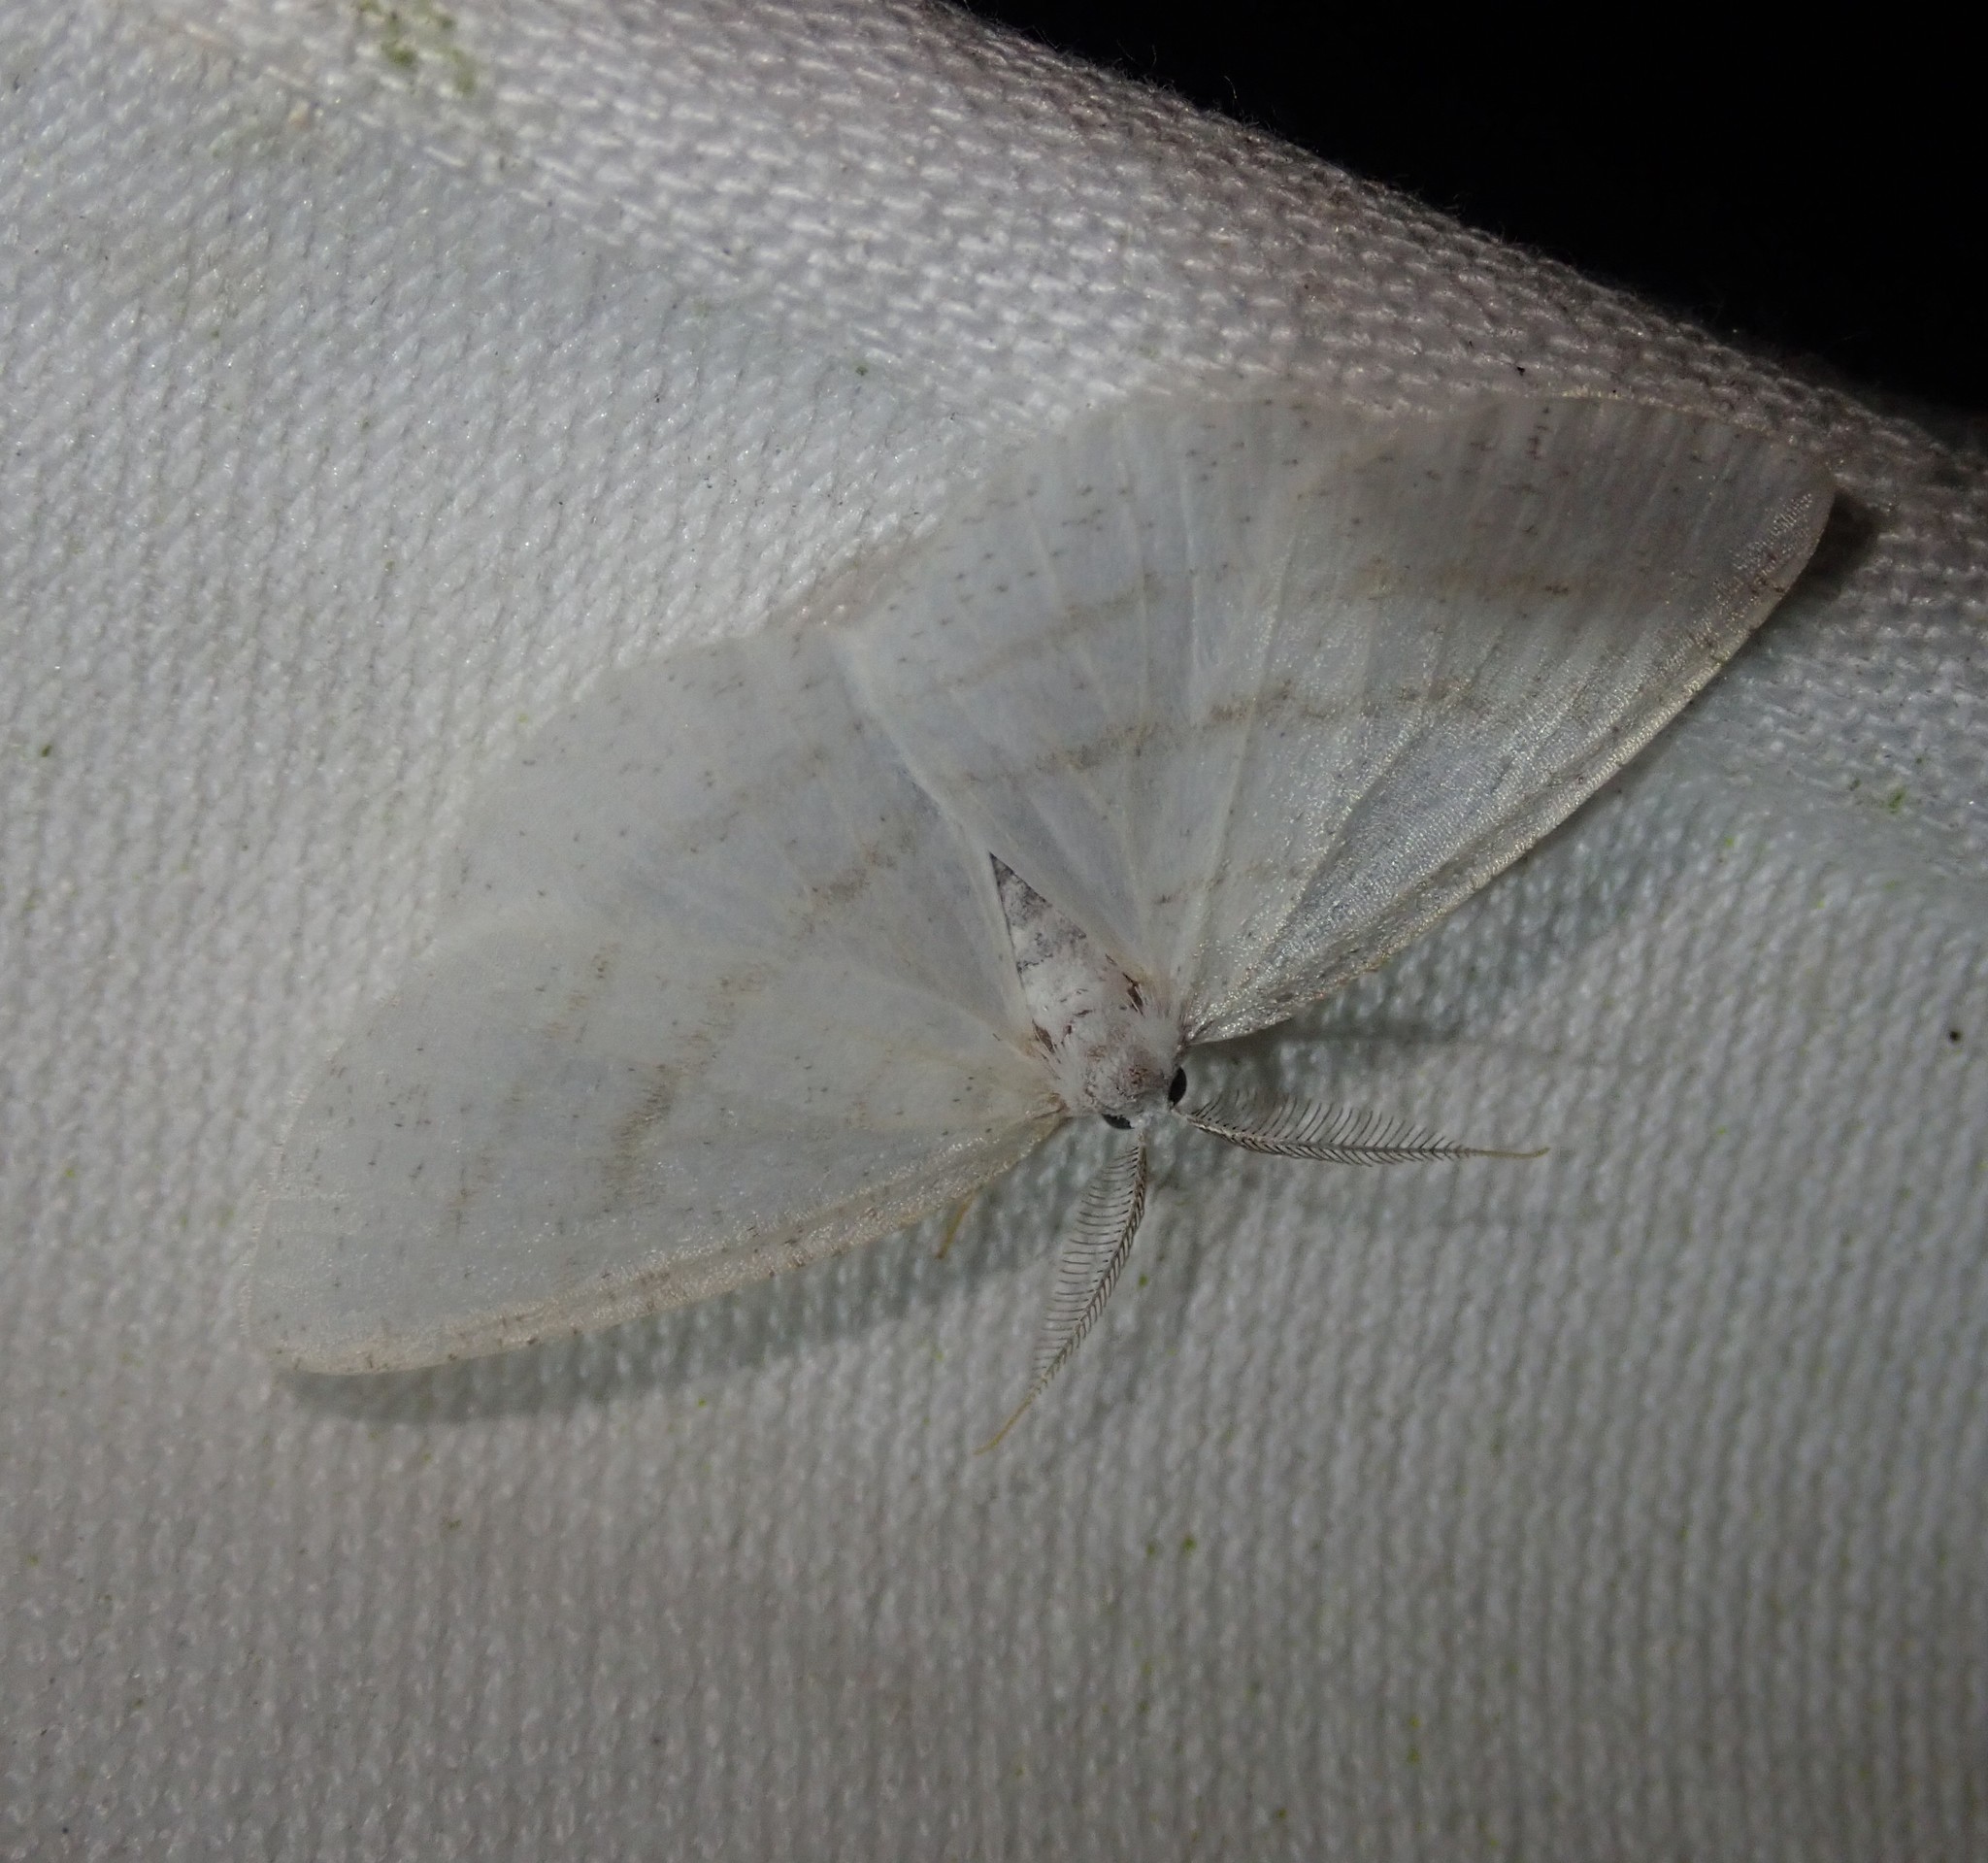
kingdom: Animalia
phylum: Arthropoda
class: Insecta
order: Lepidoptera
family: Geometridae
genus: Cabera
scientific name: Cabera pusaria
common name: Common white wave
